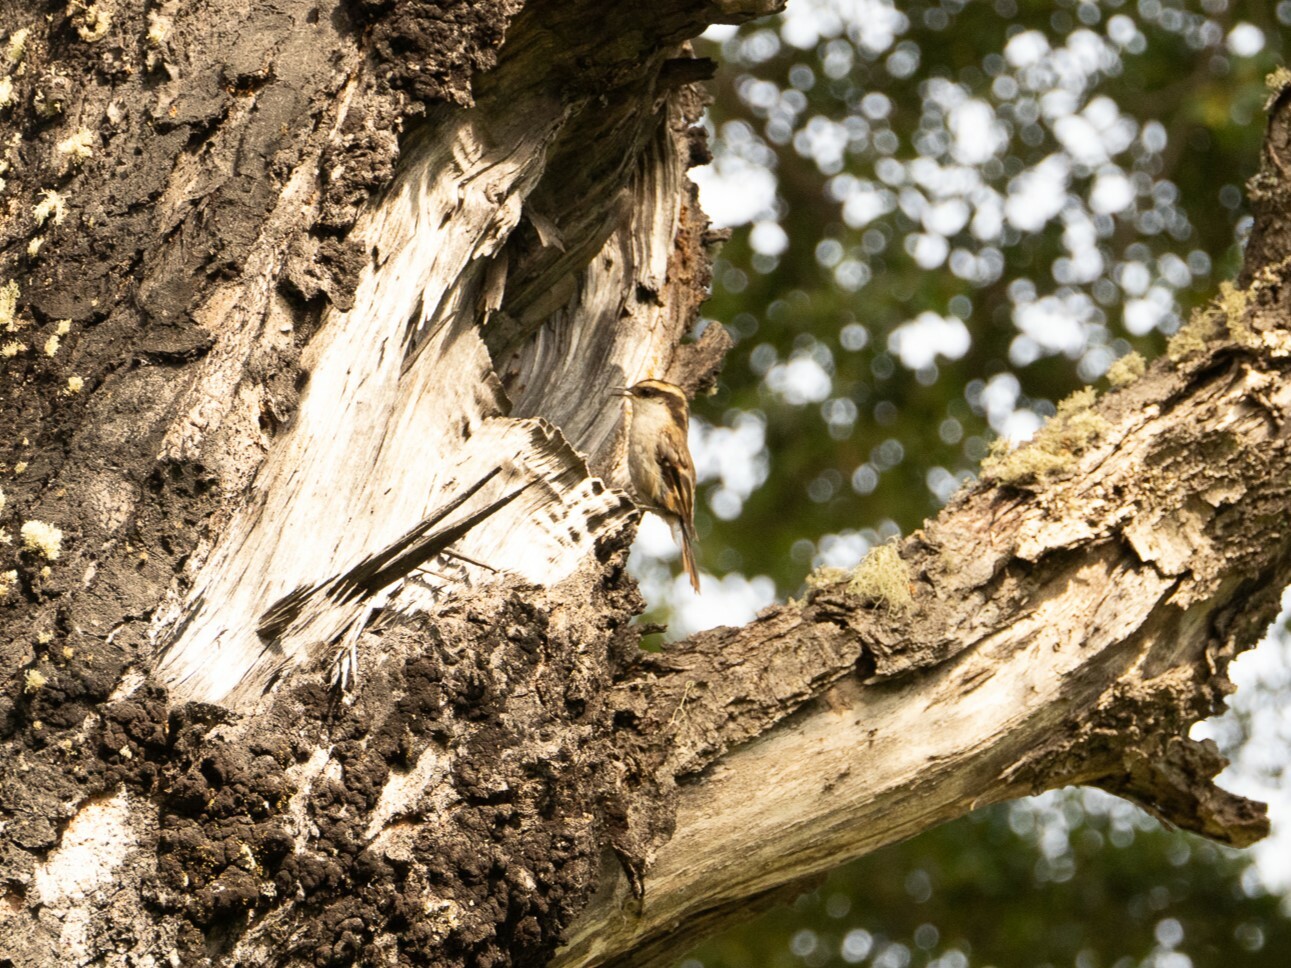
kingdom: Animalia
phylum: Chordata
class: Aves
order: Passeriformes
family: Furnariidae
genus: Aphrastura
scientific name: Aphrastura spinicauda
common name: Thorn-tailed rayadito
